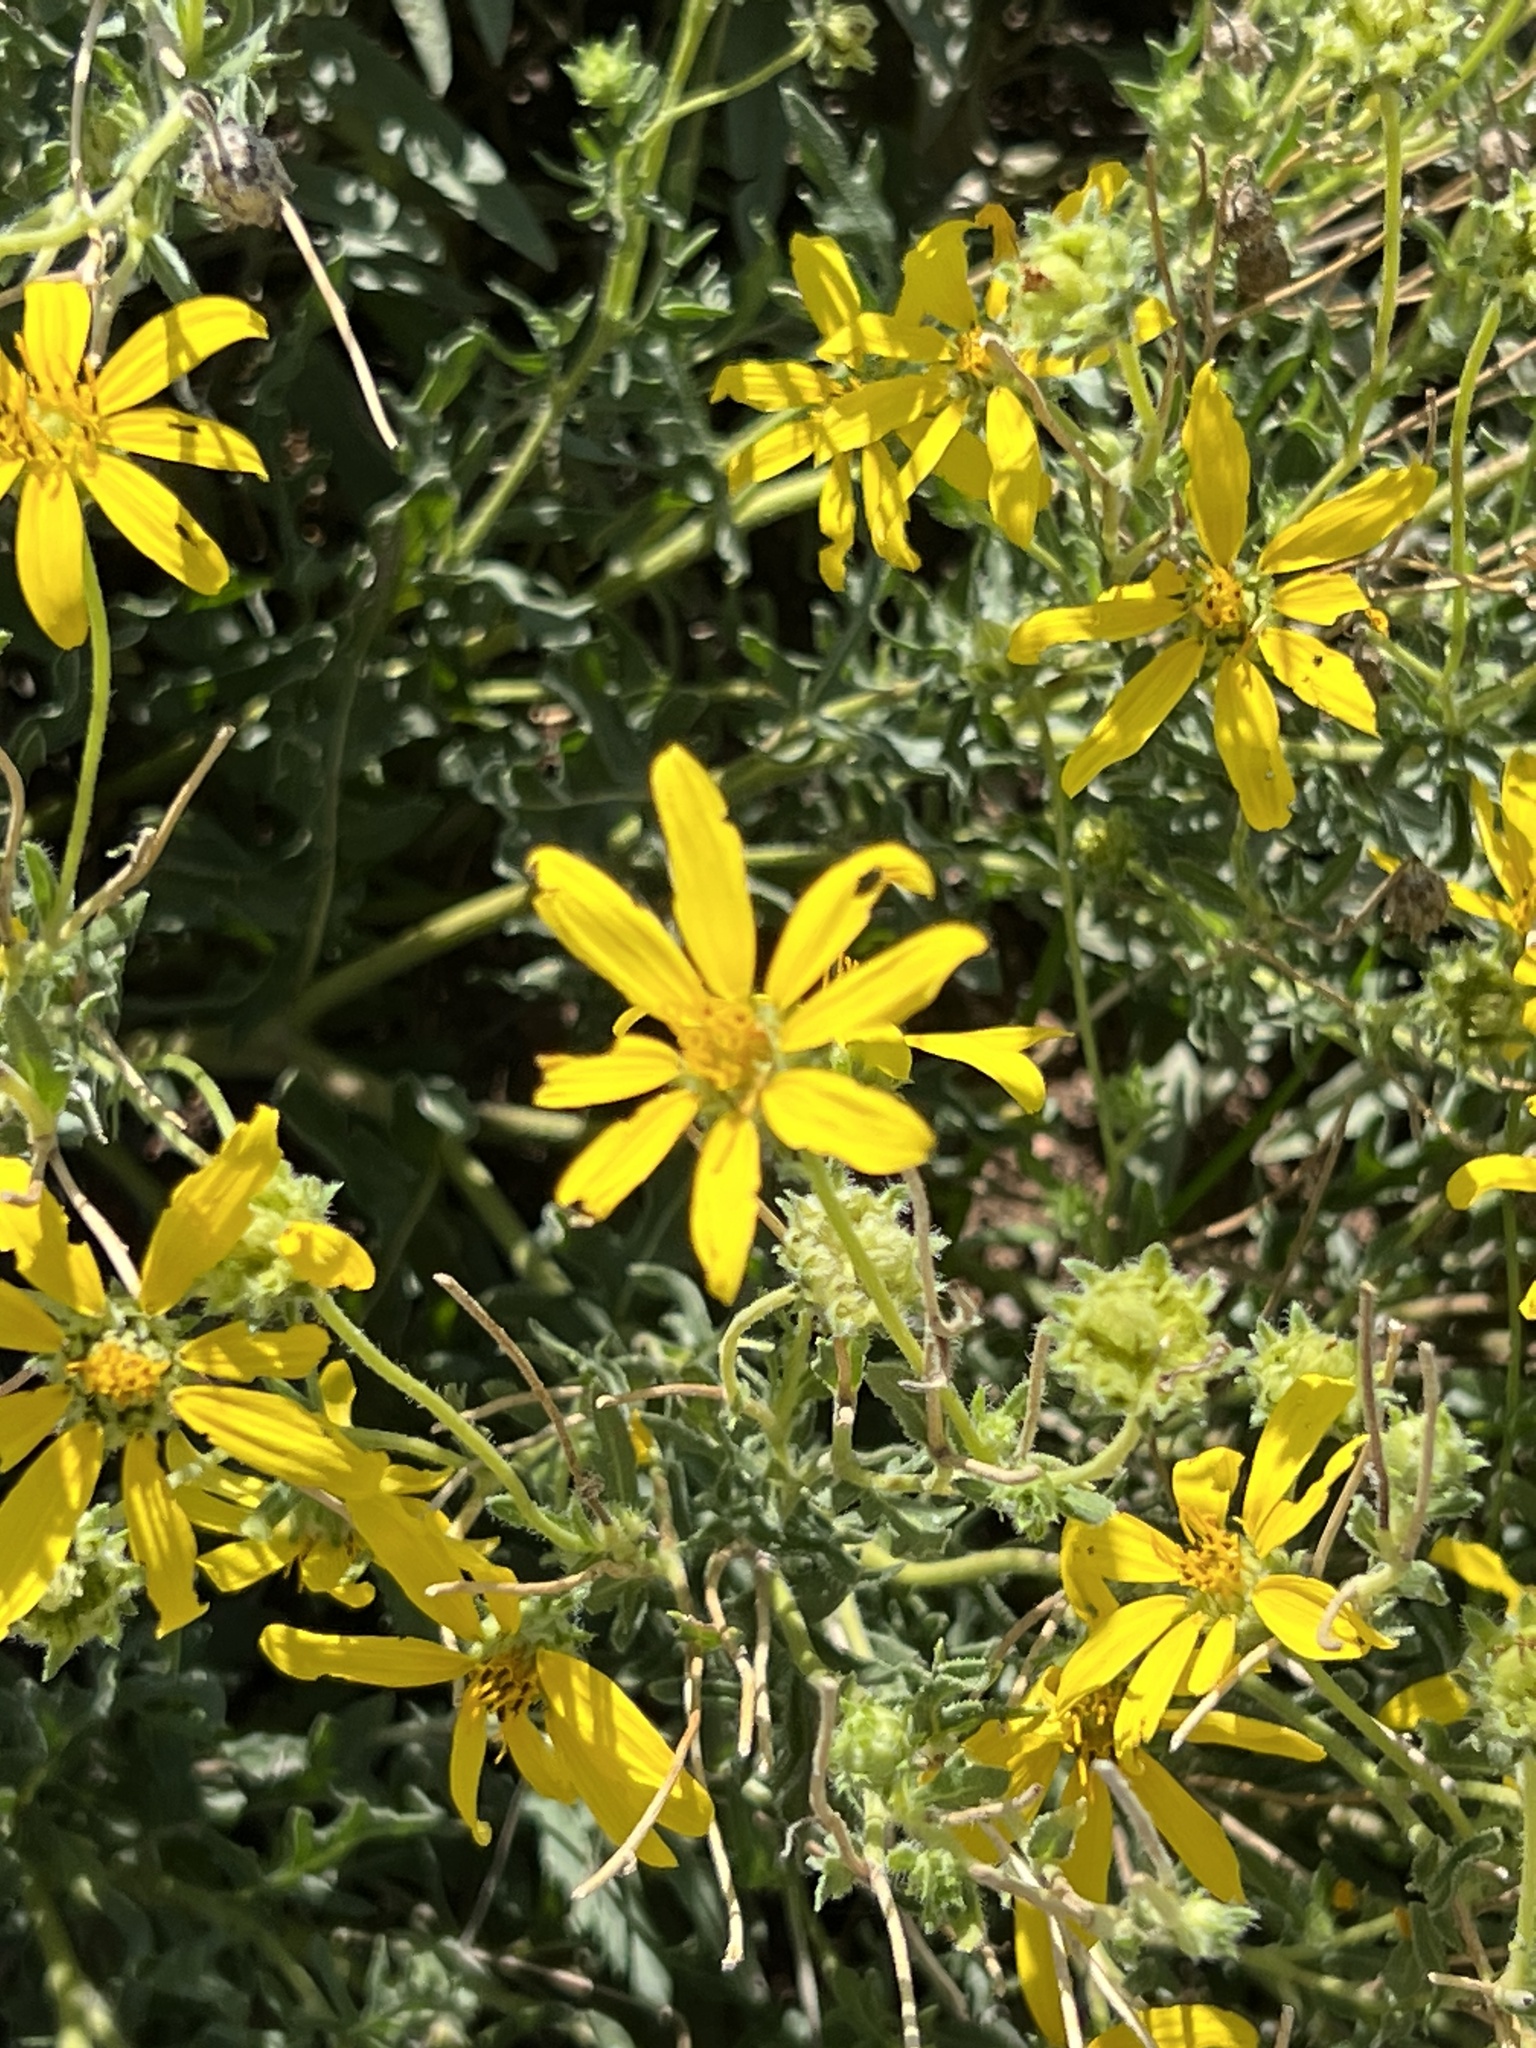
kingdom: Plantae
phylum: Tracheophyta
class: Magnoliopsida
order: Asterales
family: Asteraceae
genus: Engelmannia
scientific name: Engelmannia peristenia
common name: Engelmann's daisy
